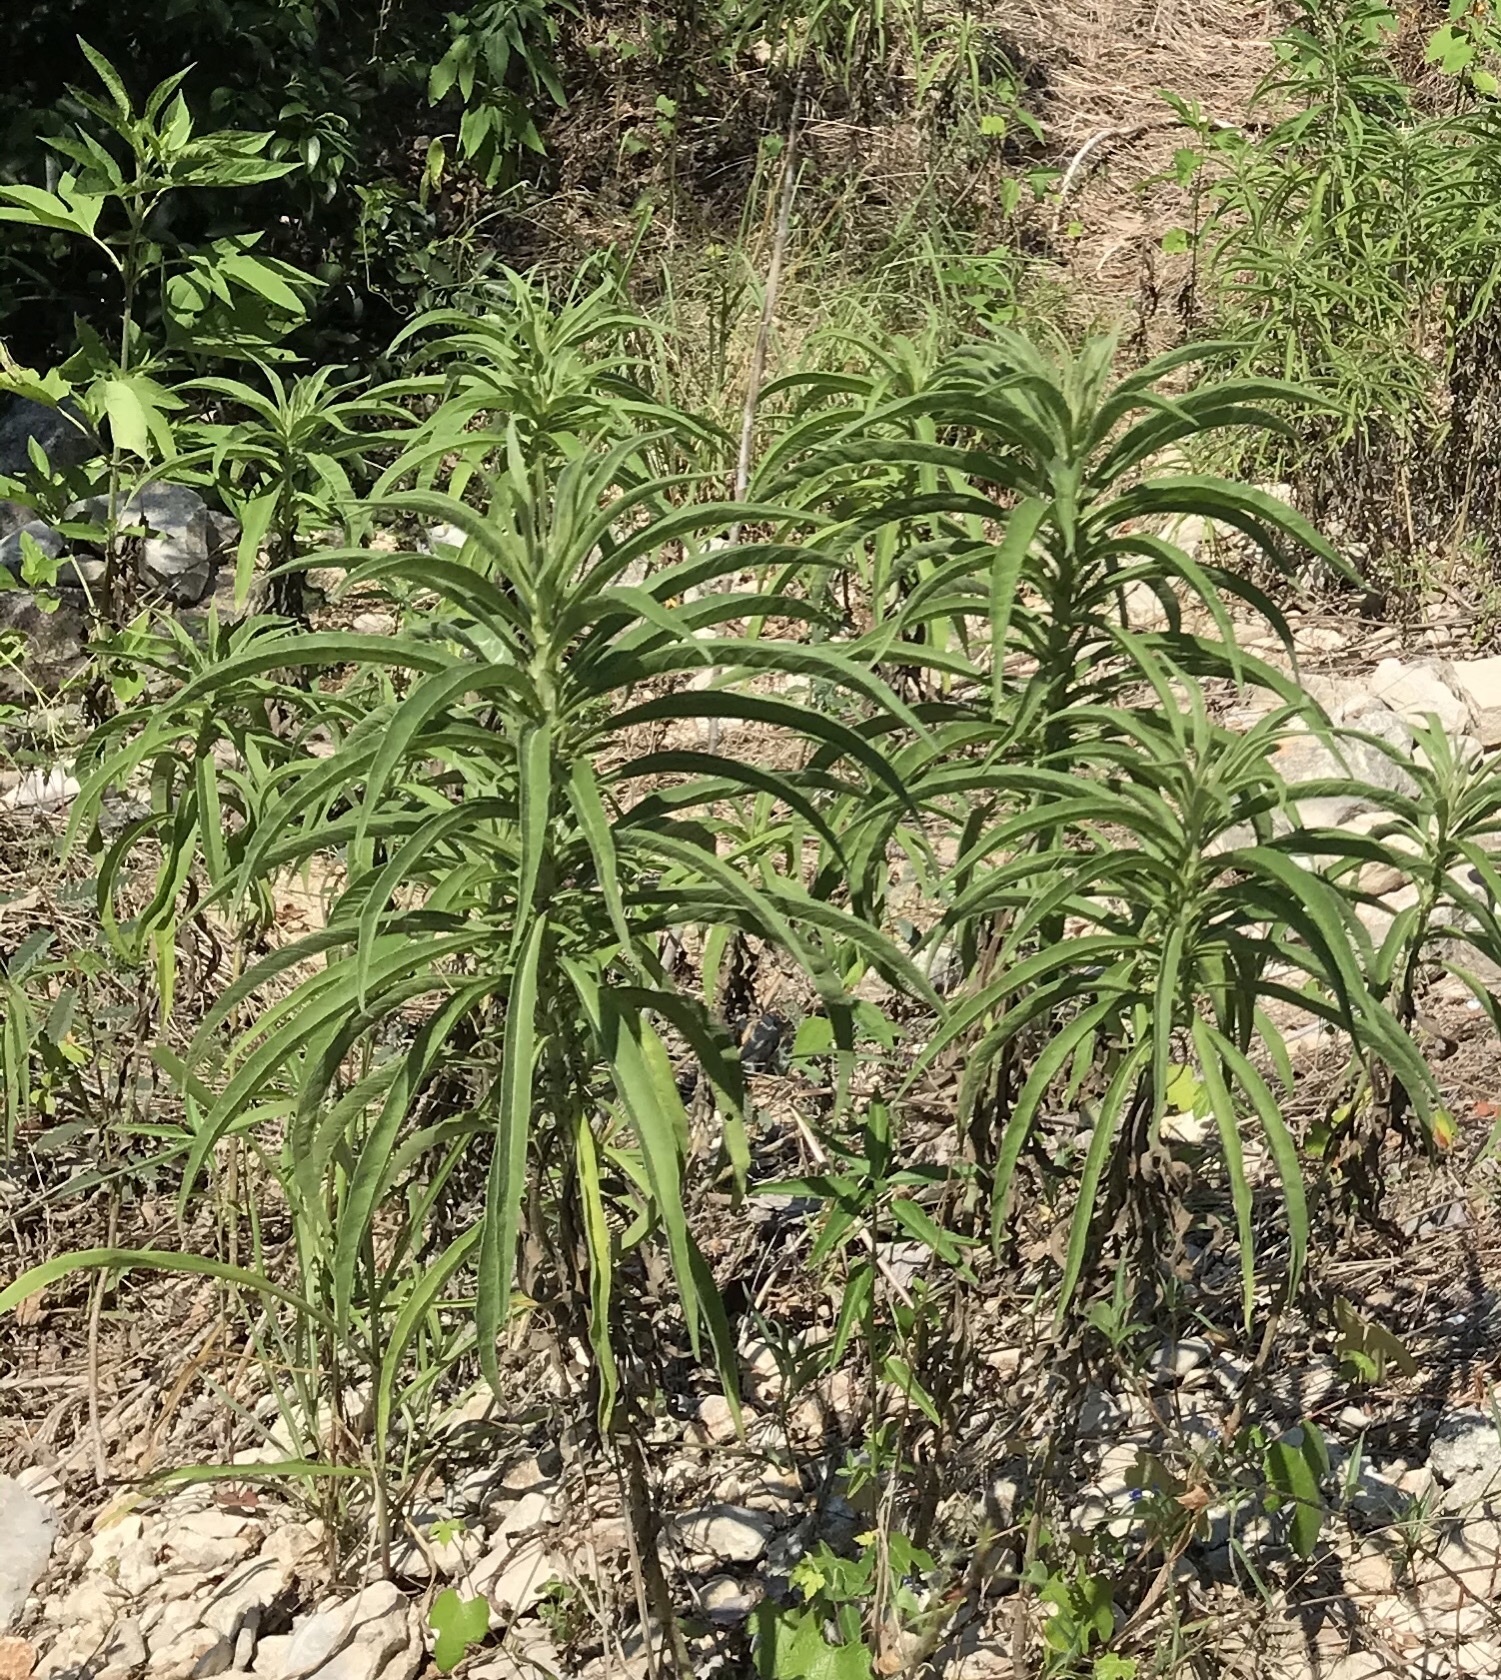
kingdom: Plantae
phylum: Tracheophyta
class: Magnoliopsida
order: Asterales
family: Asteraceae
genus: Helianthus
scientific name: Helianthus maximiliani
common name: Maximilian's sunflower
